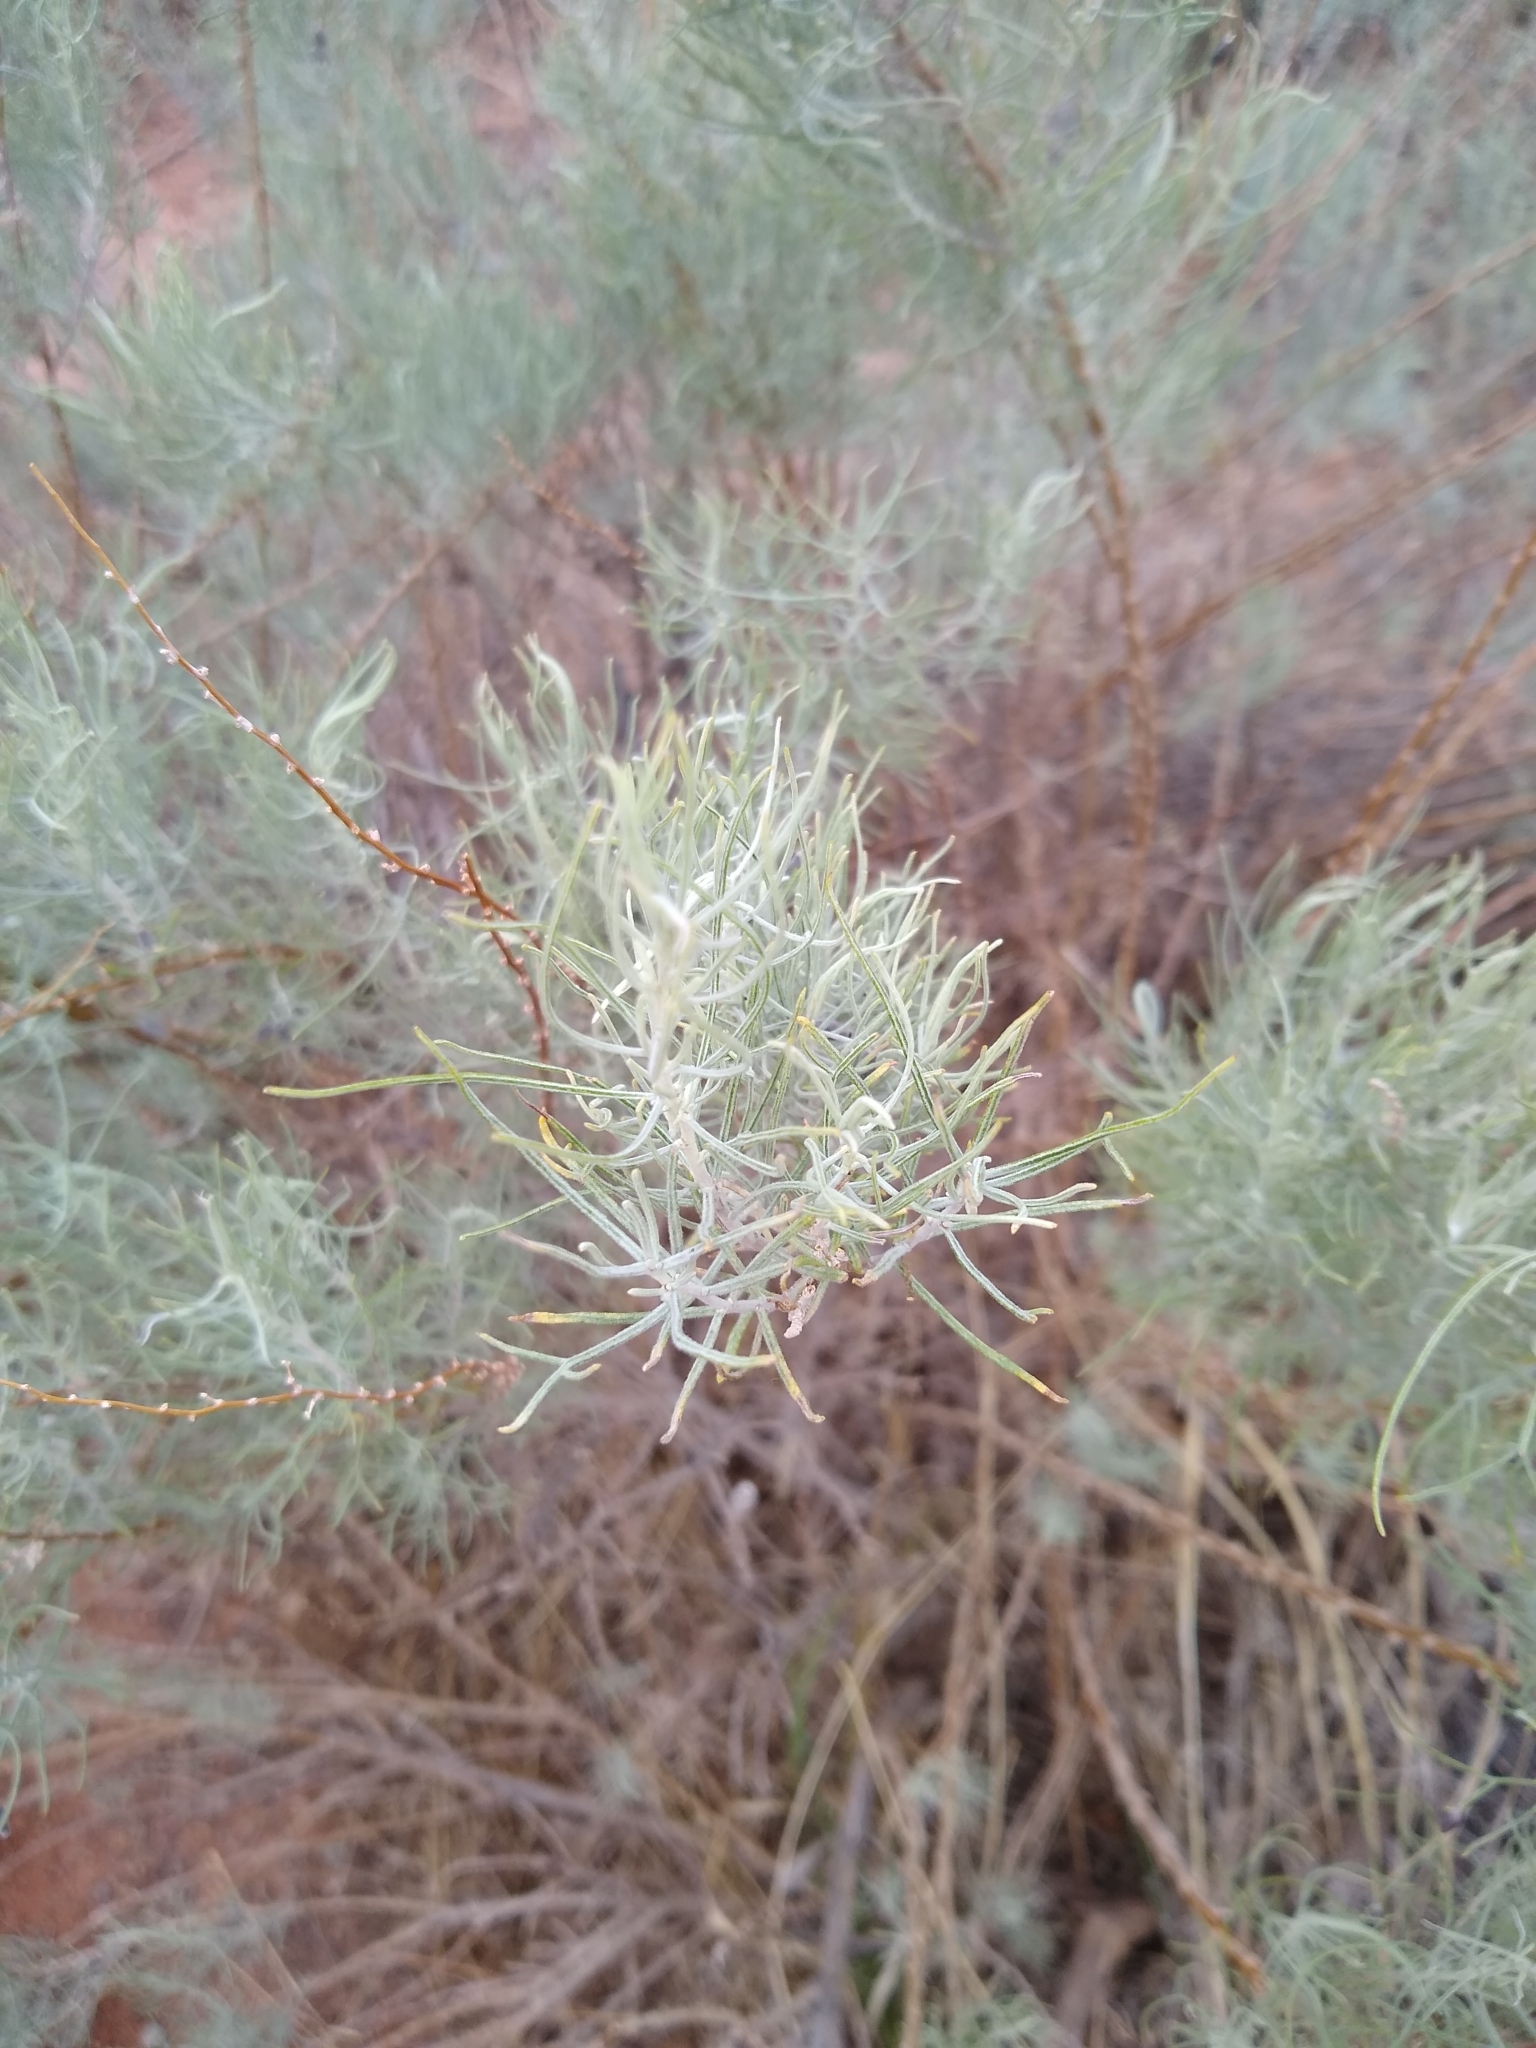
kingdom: Plantae
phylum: Tracheophyta
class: Magnoliopsida
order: Asterales
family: Asteraceae
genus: Artemisia
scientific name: Artemisia filifolia
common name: Sand-sage
